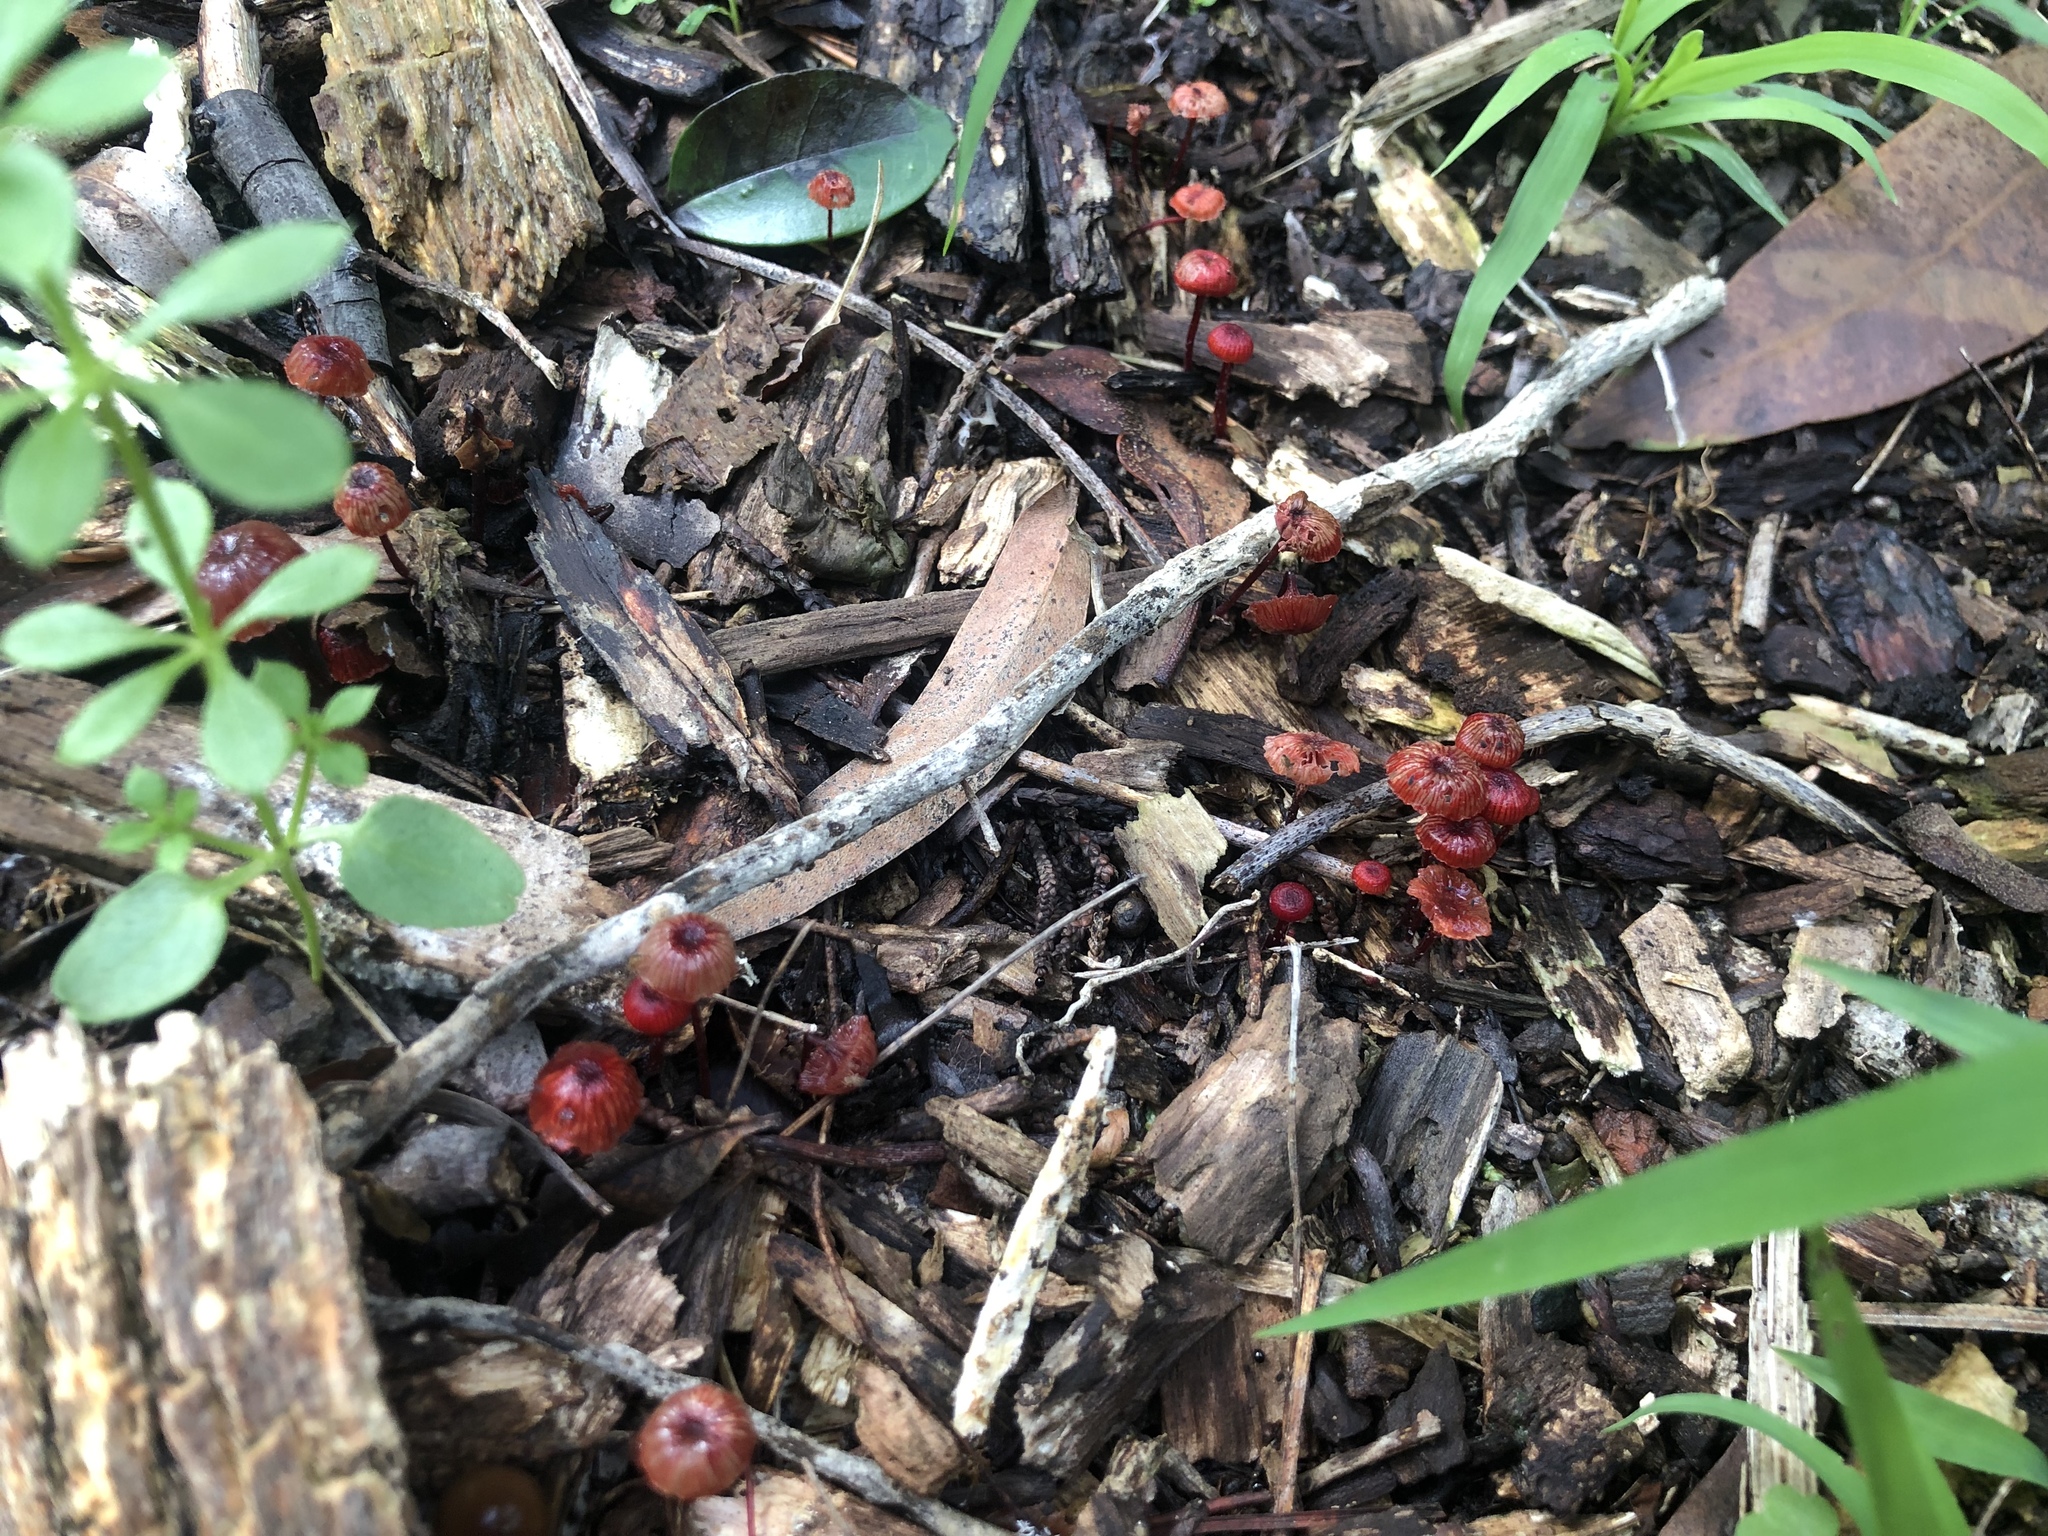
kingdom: Fungi
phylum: Basidiomycota
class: Agaricomycetes
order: Agaricales
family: Mycenaceae
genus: Cruentomycena
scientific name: Cruentomycena viscidocruenta
